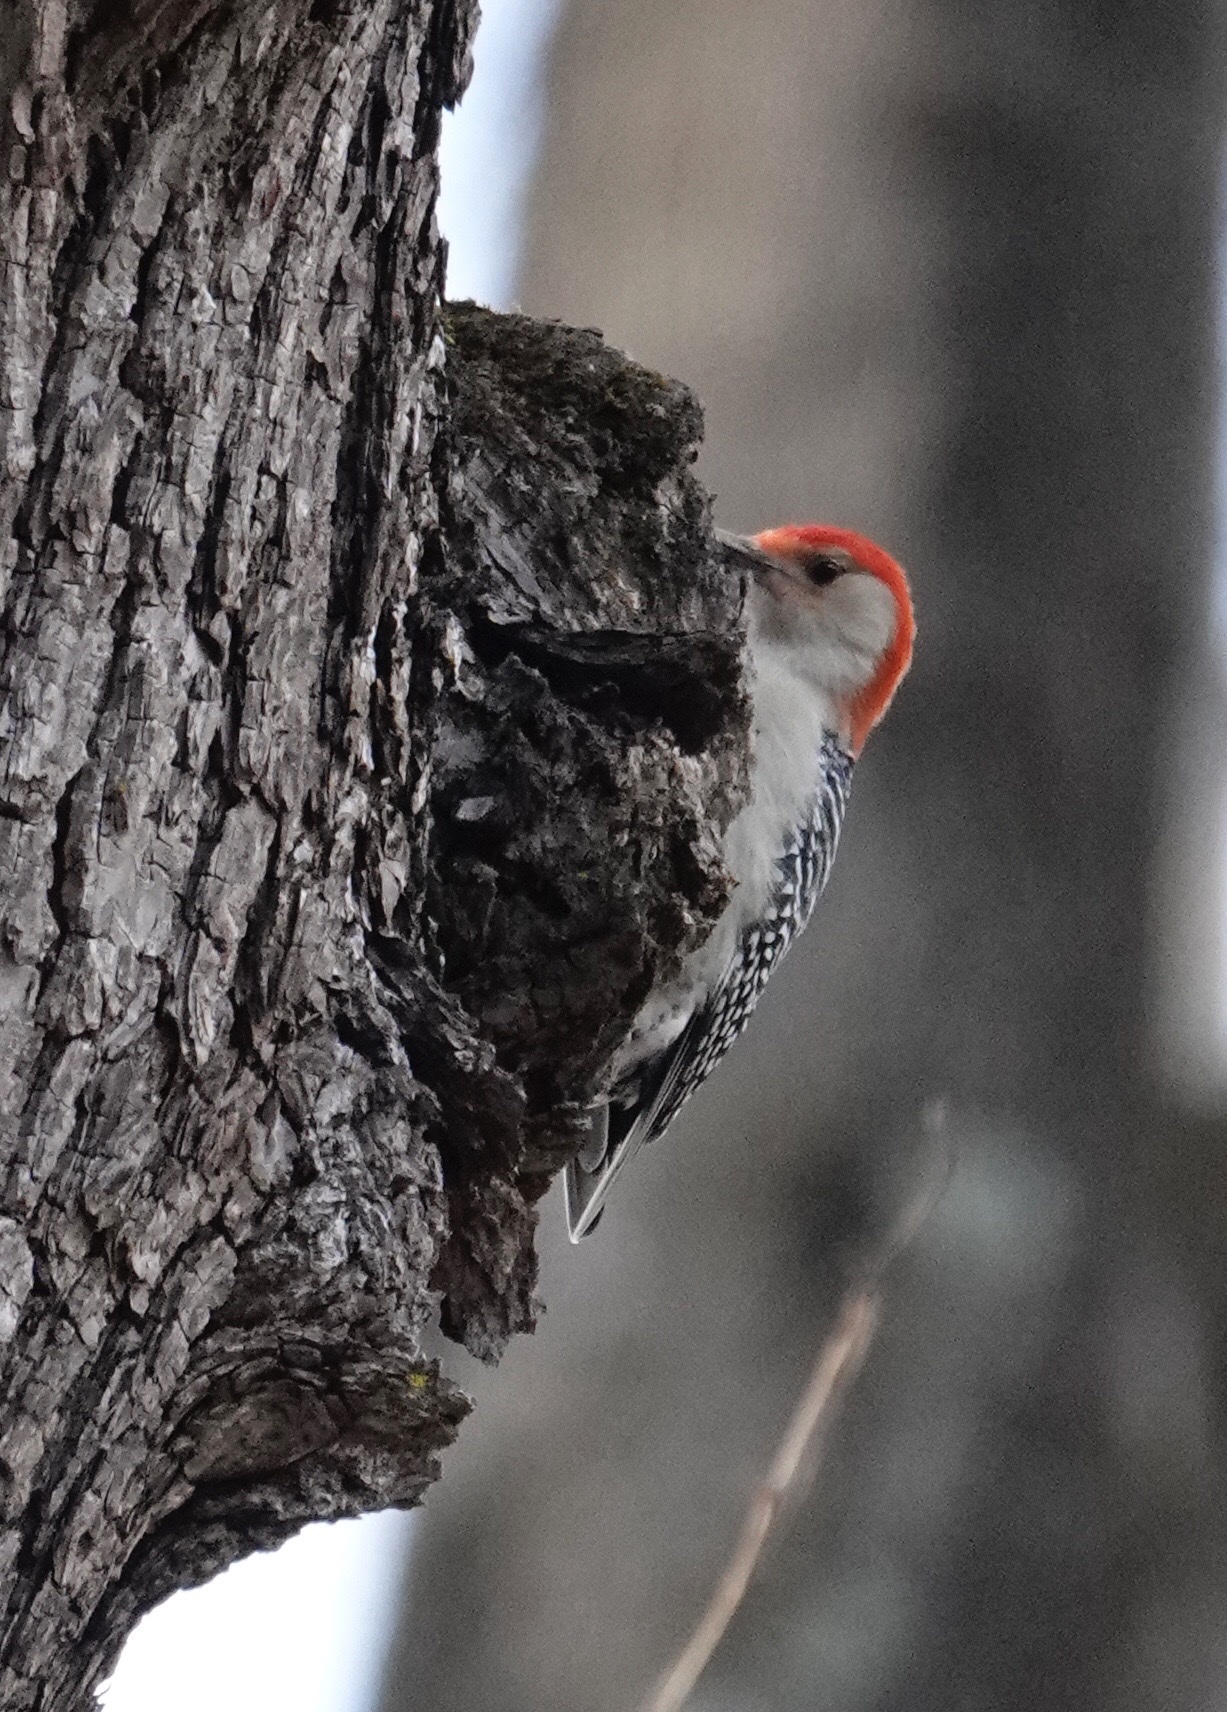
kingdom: Animalia
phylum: Chordata
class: Aves
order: Piciformes
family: Picidae
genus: Melanerpes
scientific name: Melanerpes carolinus
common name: Red-bellied woodpecker
